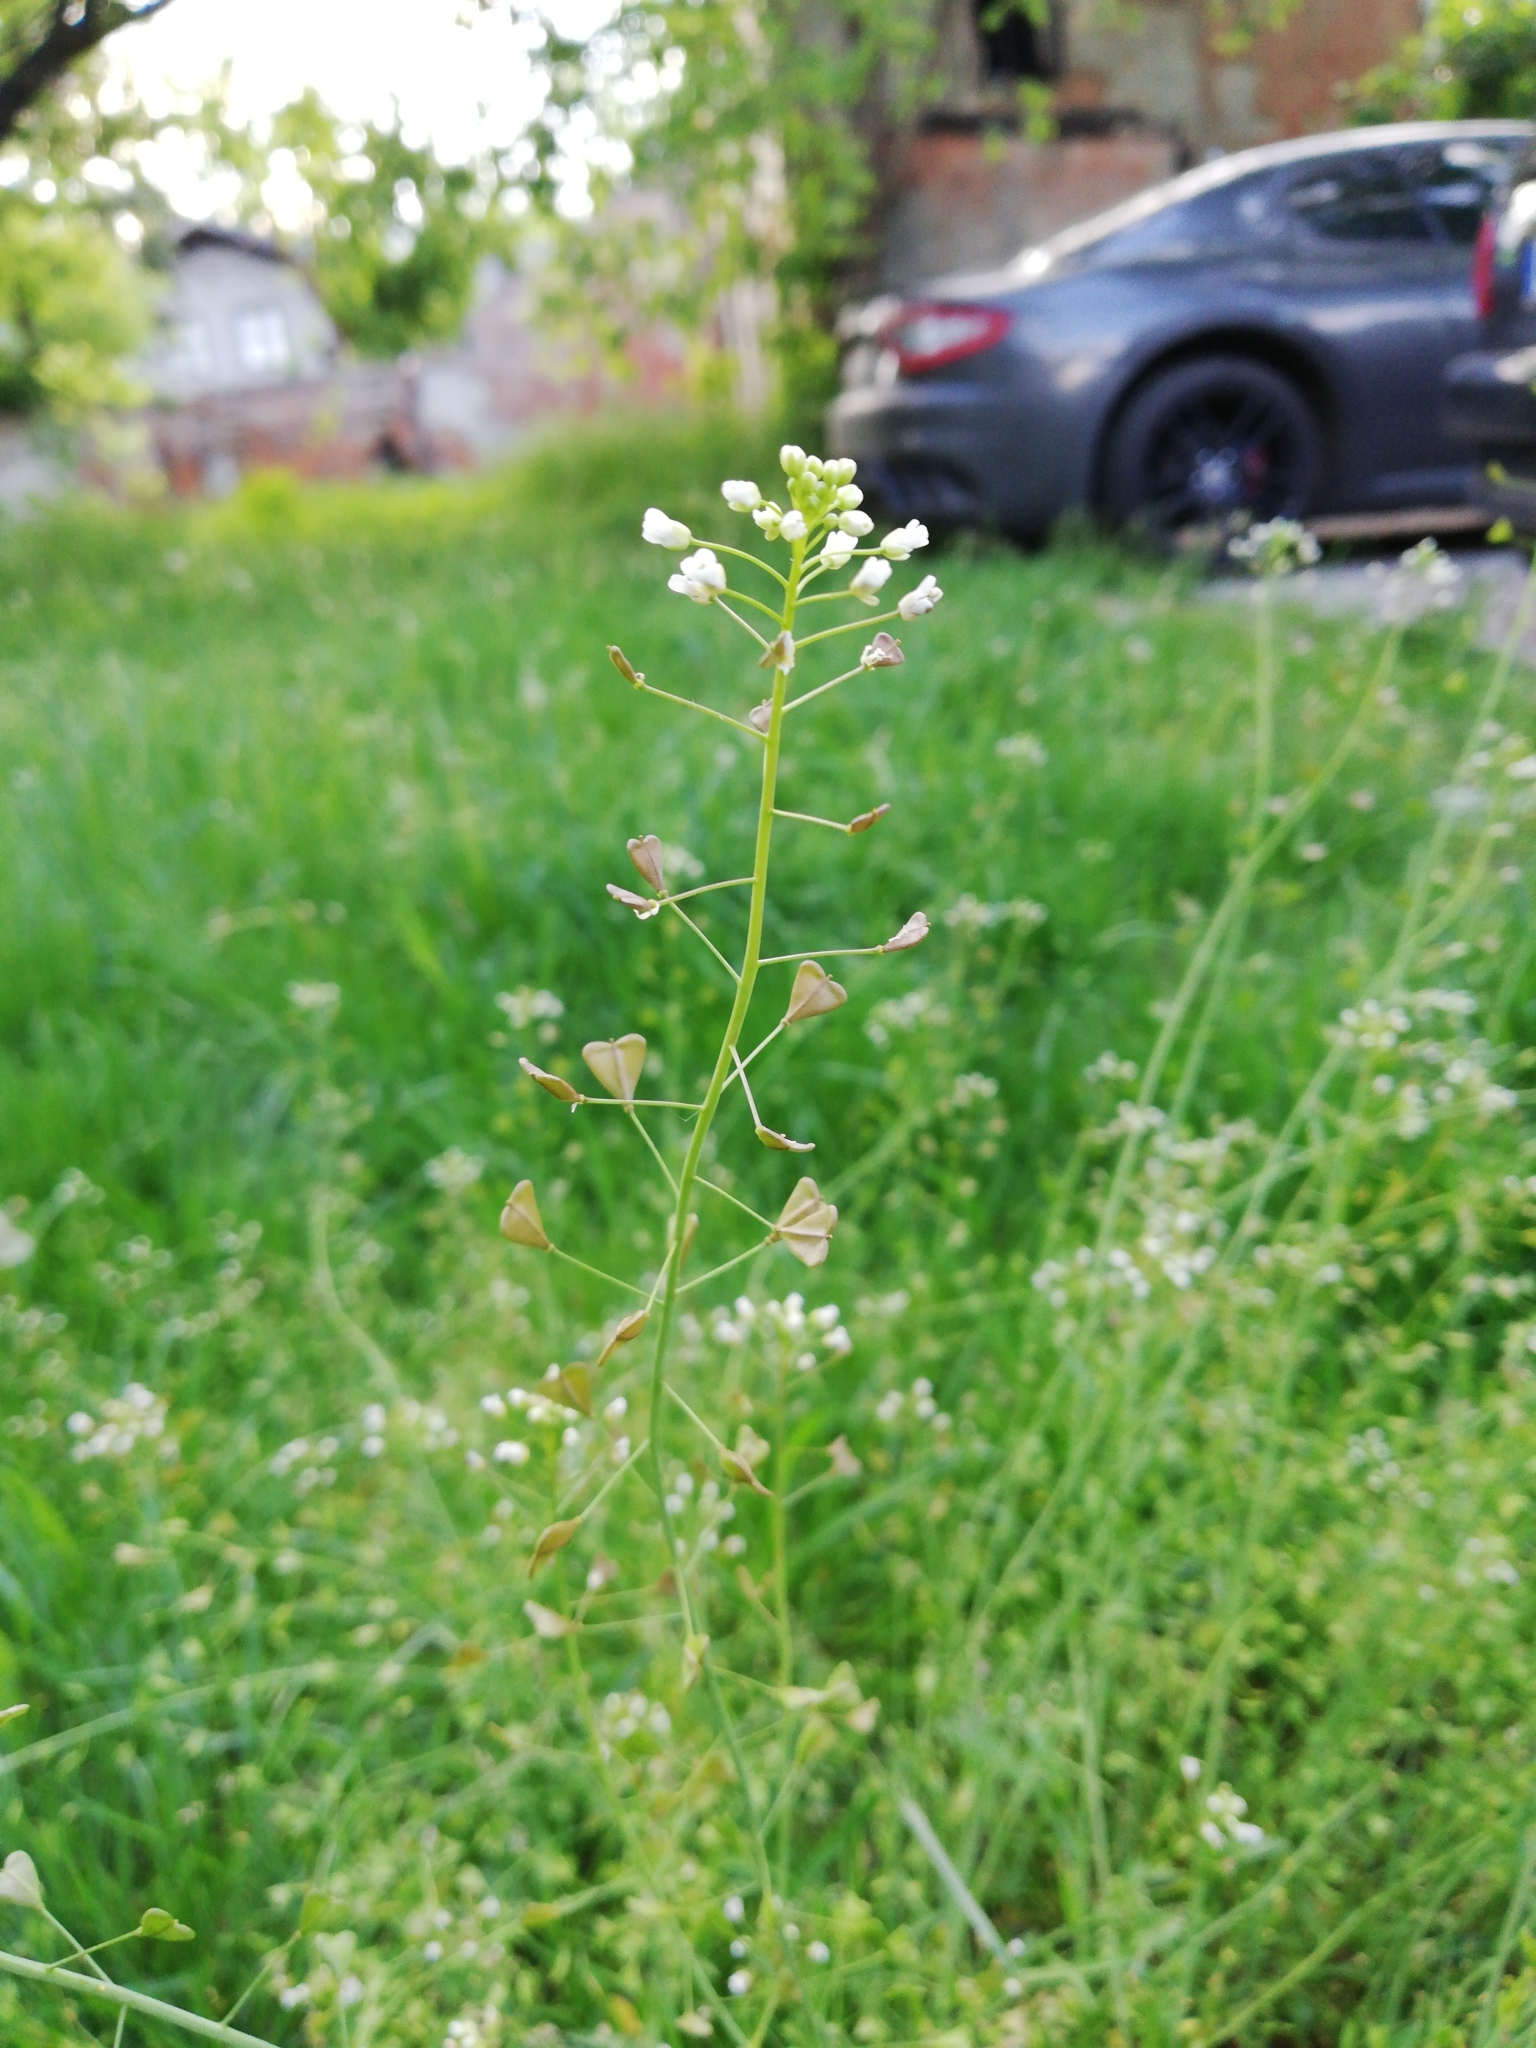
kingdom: Plantae
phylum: Tracheophyta
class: Magnoliopsida
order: Brassicales
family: Brassicaceae
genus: Capsella
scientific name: Capsella bursa-pastoris
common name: Shepherd's purse
